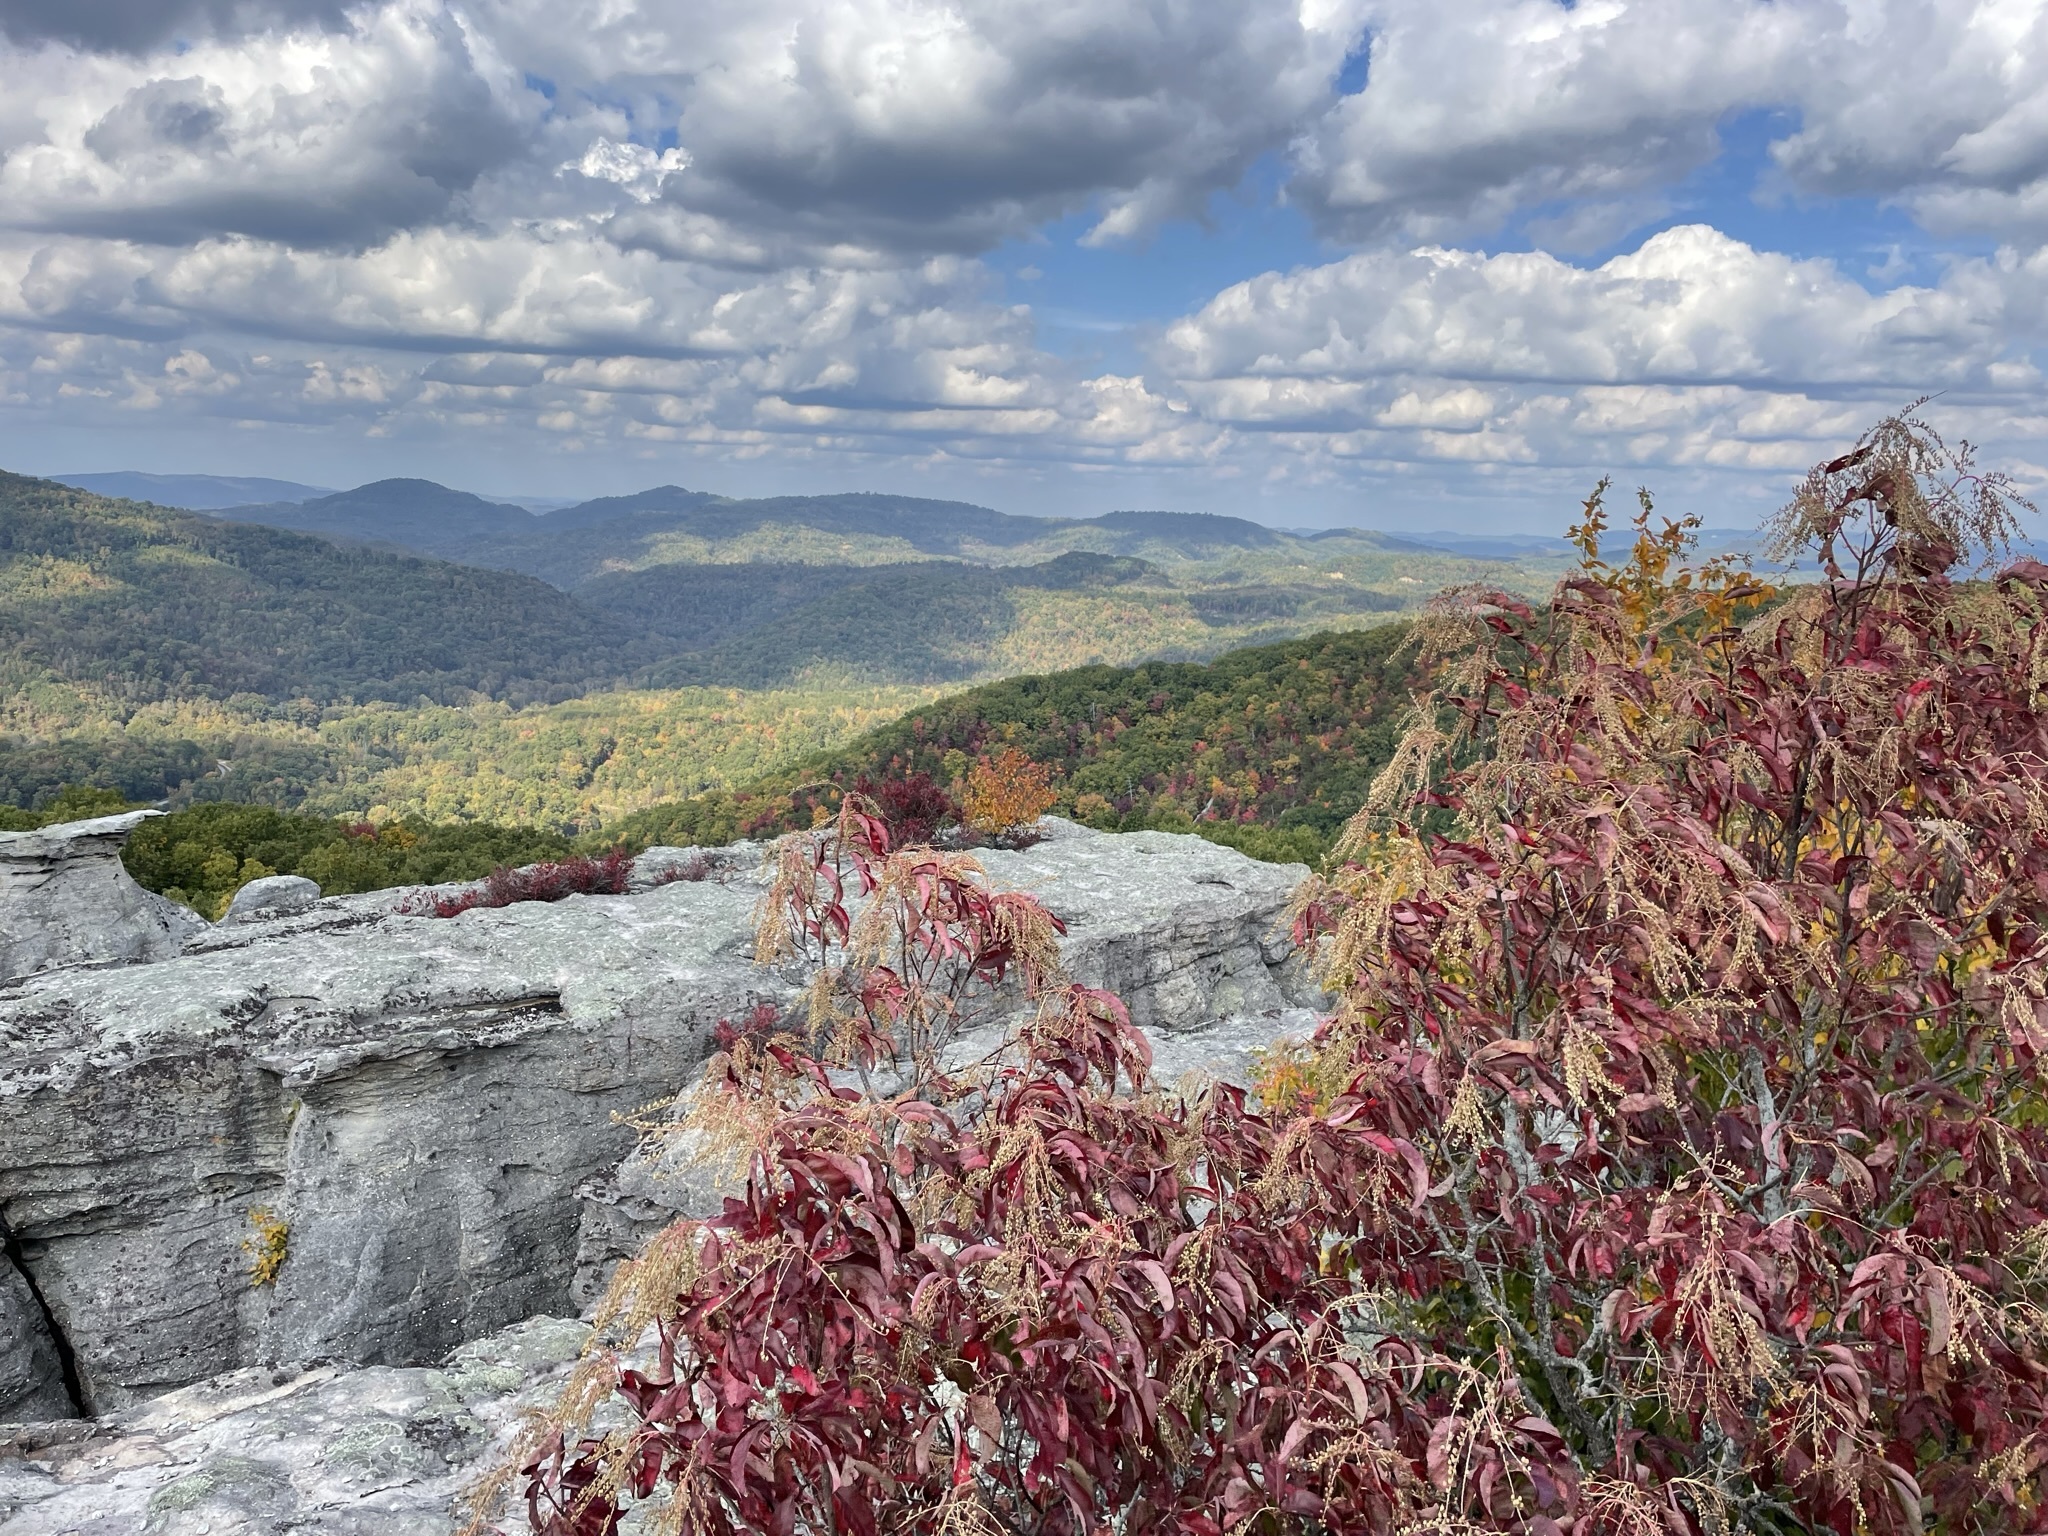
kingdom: Plantae
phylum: Tracheophyta
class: Magnoliopsida
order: Ericales
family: Ericaceae
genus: Oxydendrum
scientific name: Oxydendrum arboreum
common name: Sourwood
